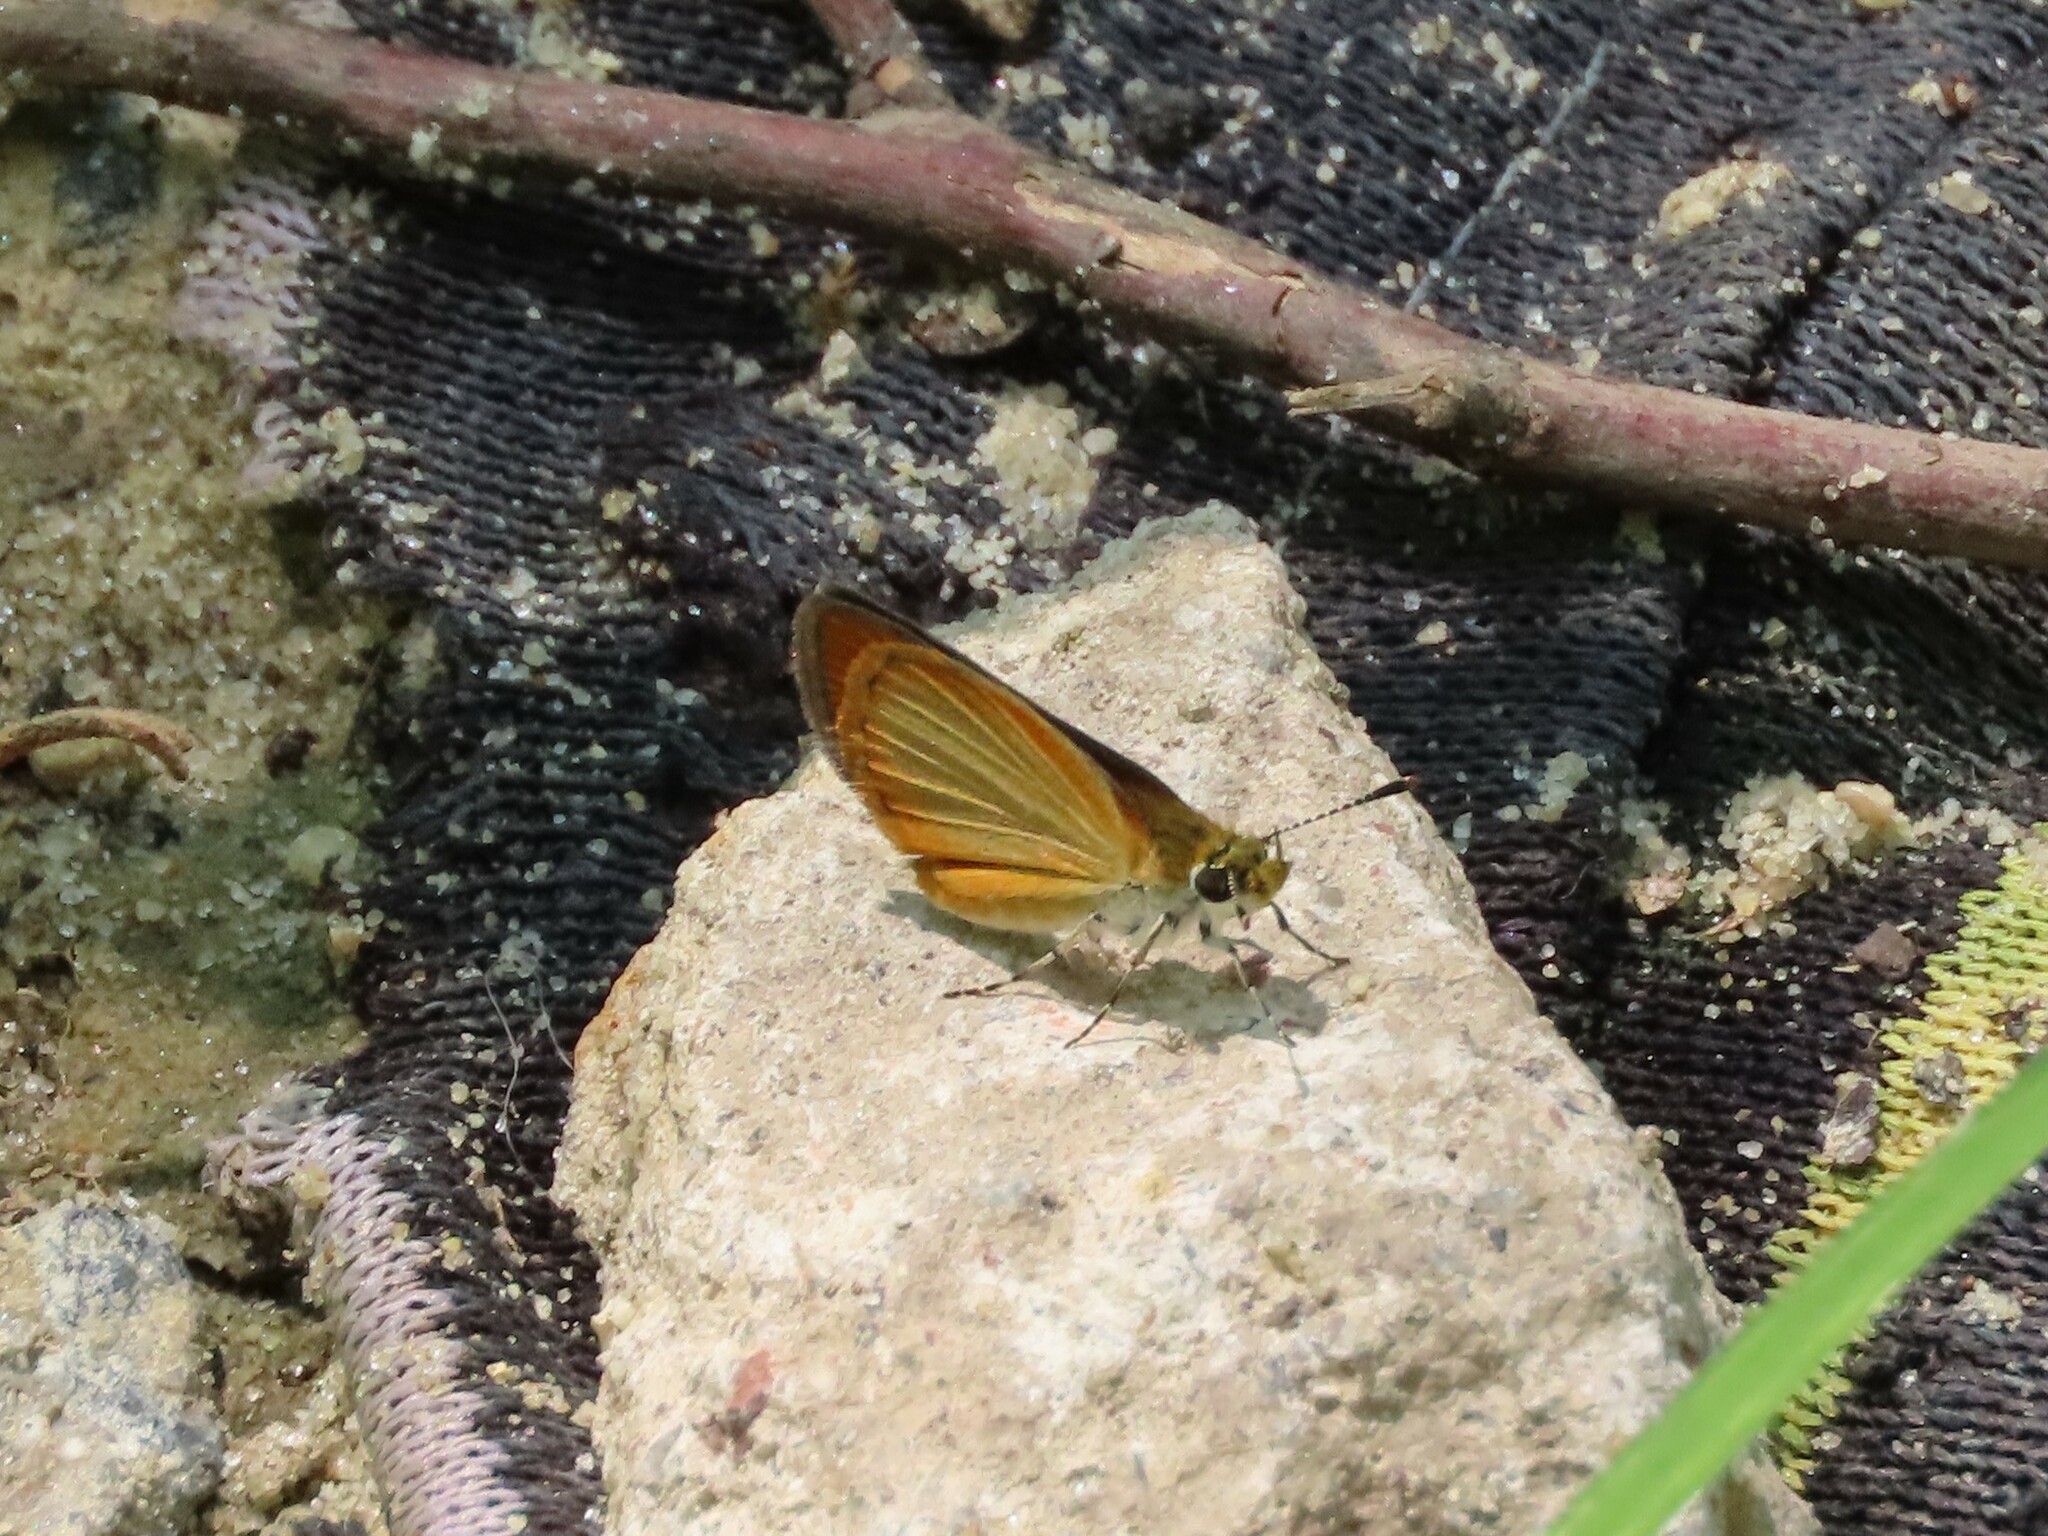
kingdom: Animalia
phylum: Arthropoda
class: Insecta
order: Lepidoptera
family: Hesperiidae
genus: Ancyloxypha
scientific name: Ancyloxypha numitor
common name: Least skipper
